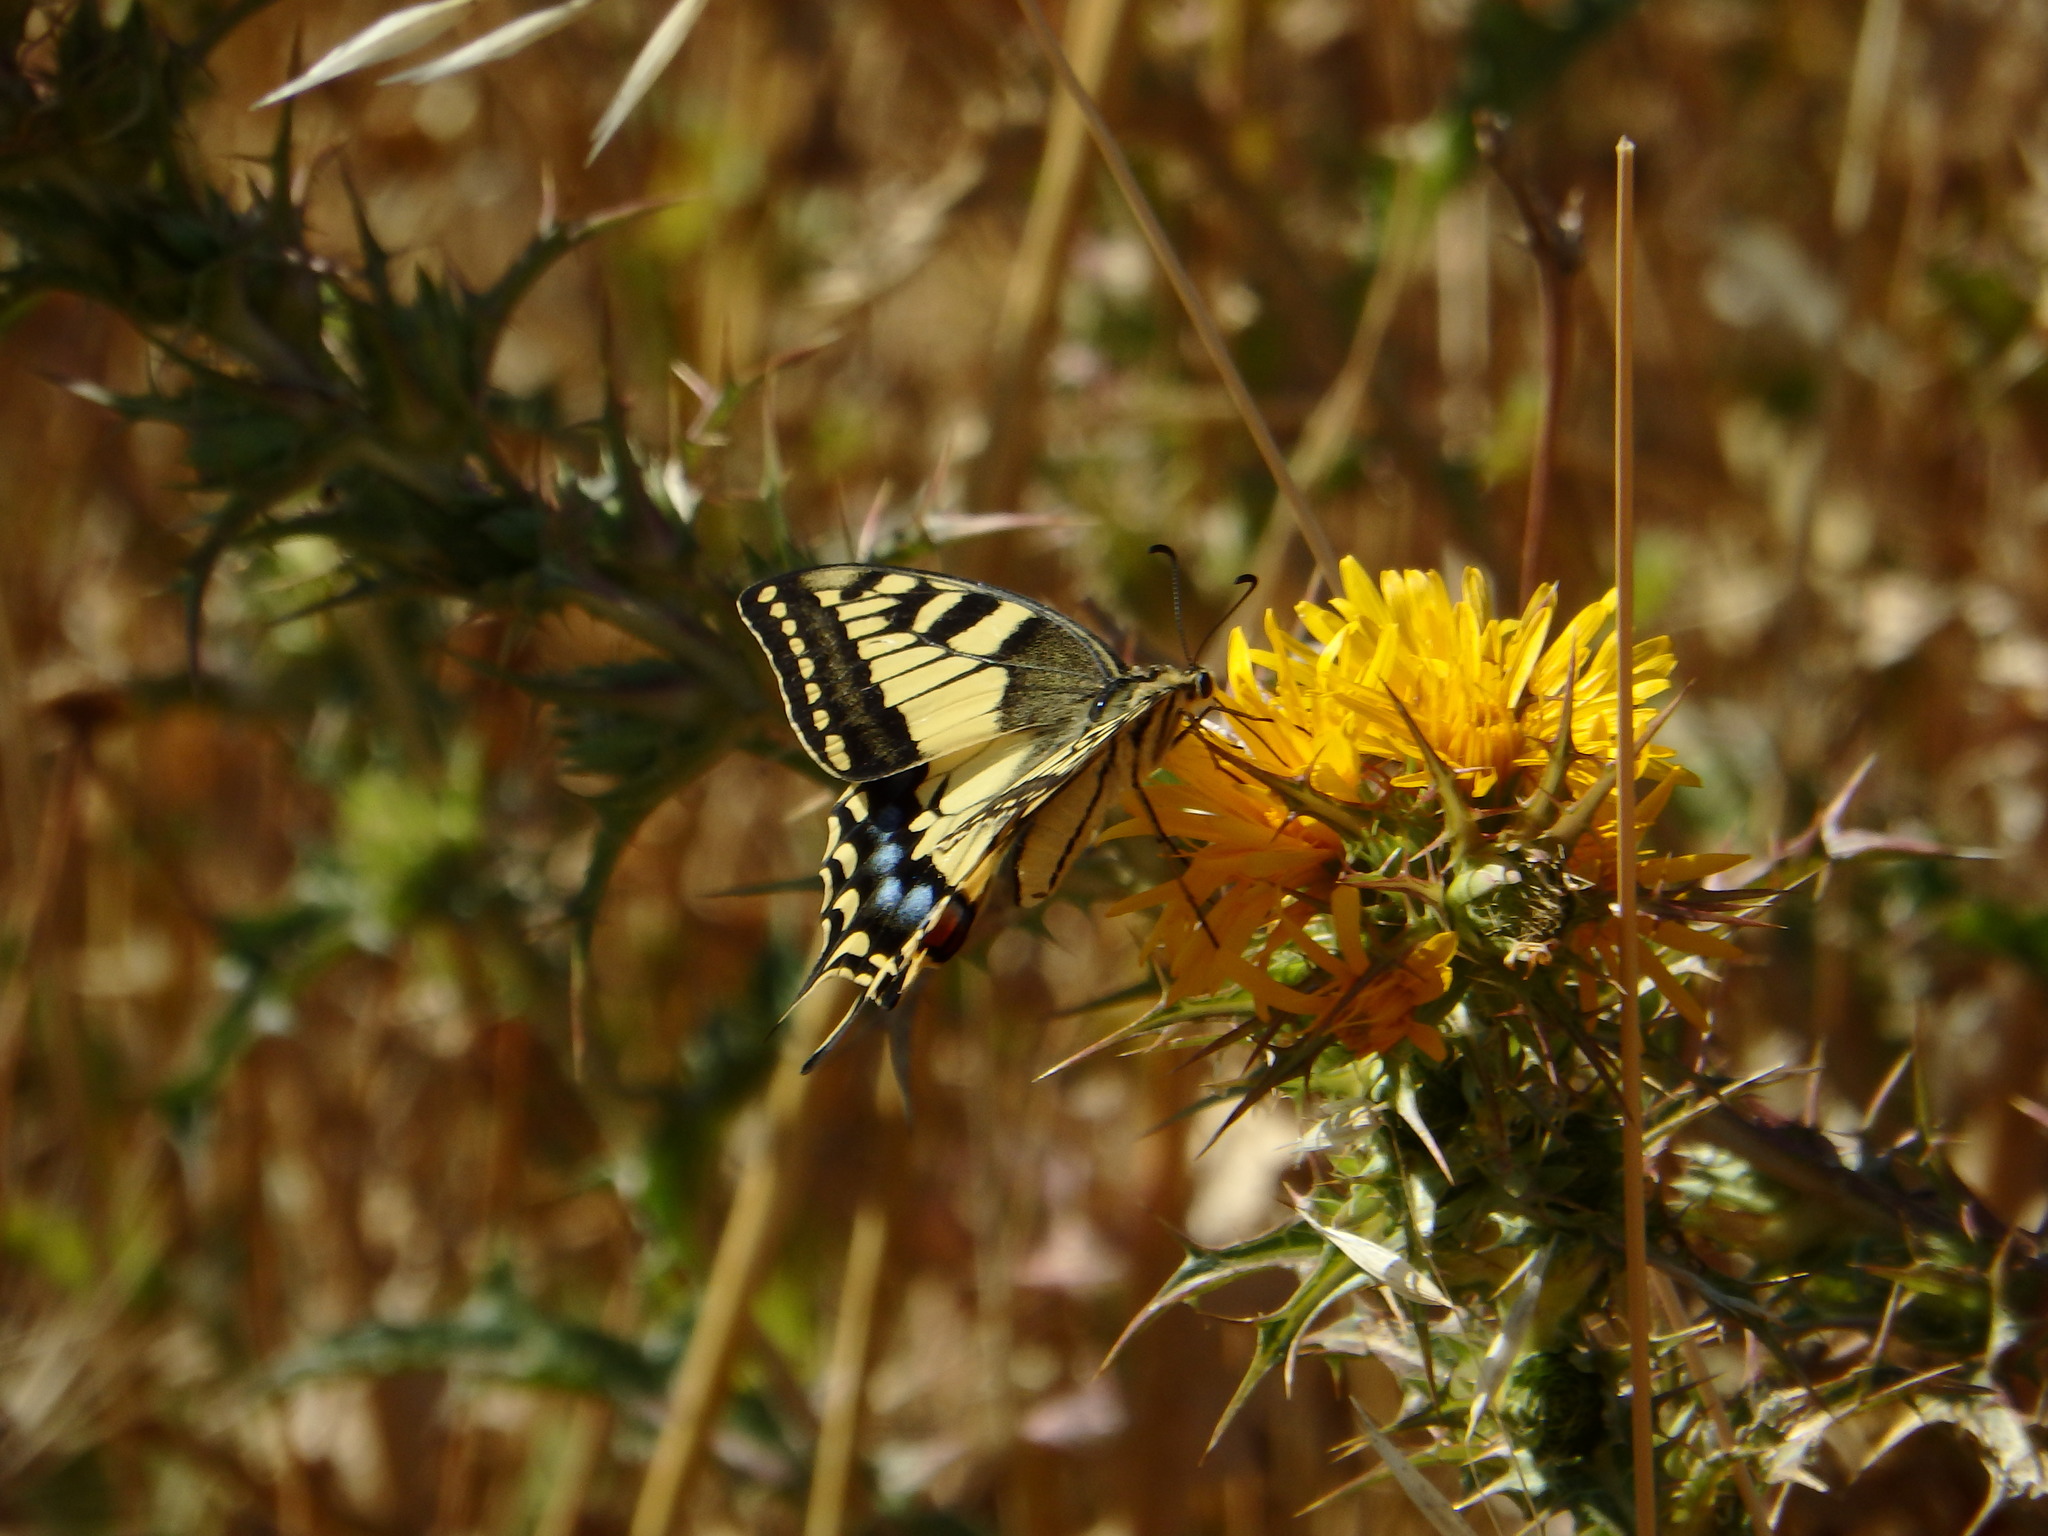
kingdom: Animalia
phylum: Arthropoda
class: Insecta
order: Lepidoptera
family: Papilionidae
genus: Papilio
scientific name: Papilio machaon
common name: Swallowtail
